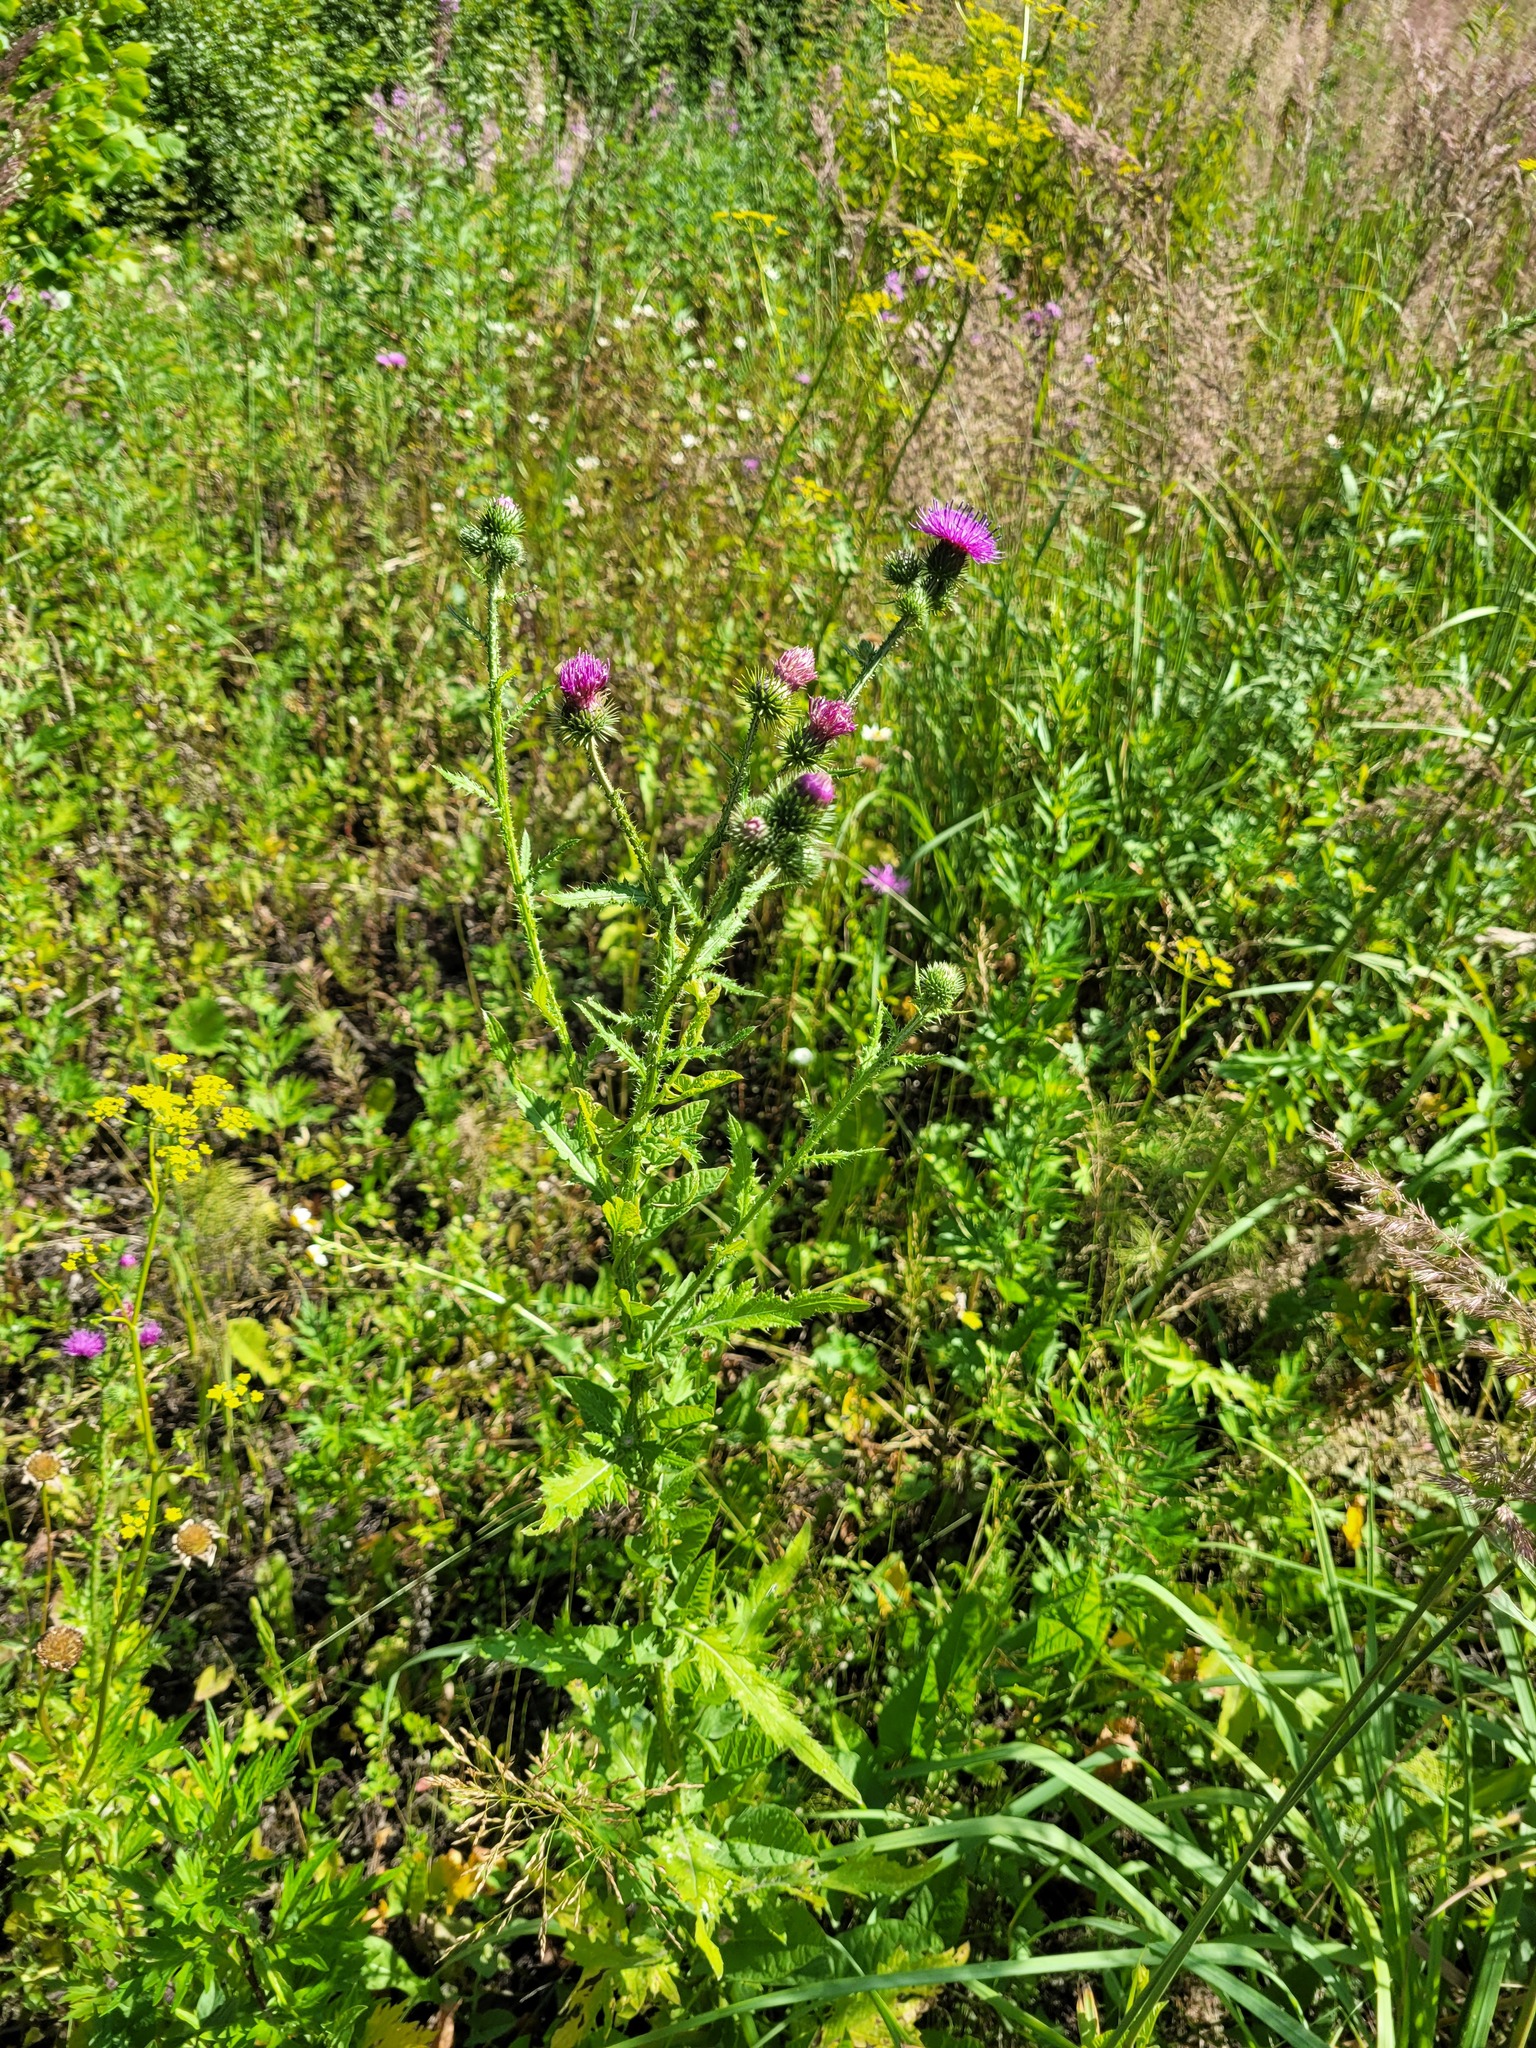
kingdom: Plantae
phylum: Tracheophyta
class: Magnoliopsida
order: Asterales
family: Asteraceae
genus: Carduus
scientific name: Carduus crispus
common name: Welted thistle
